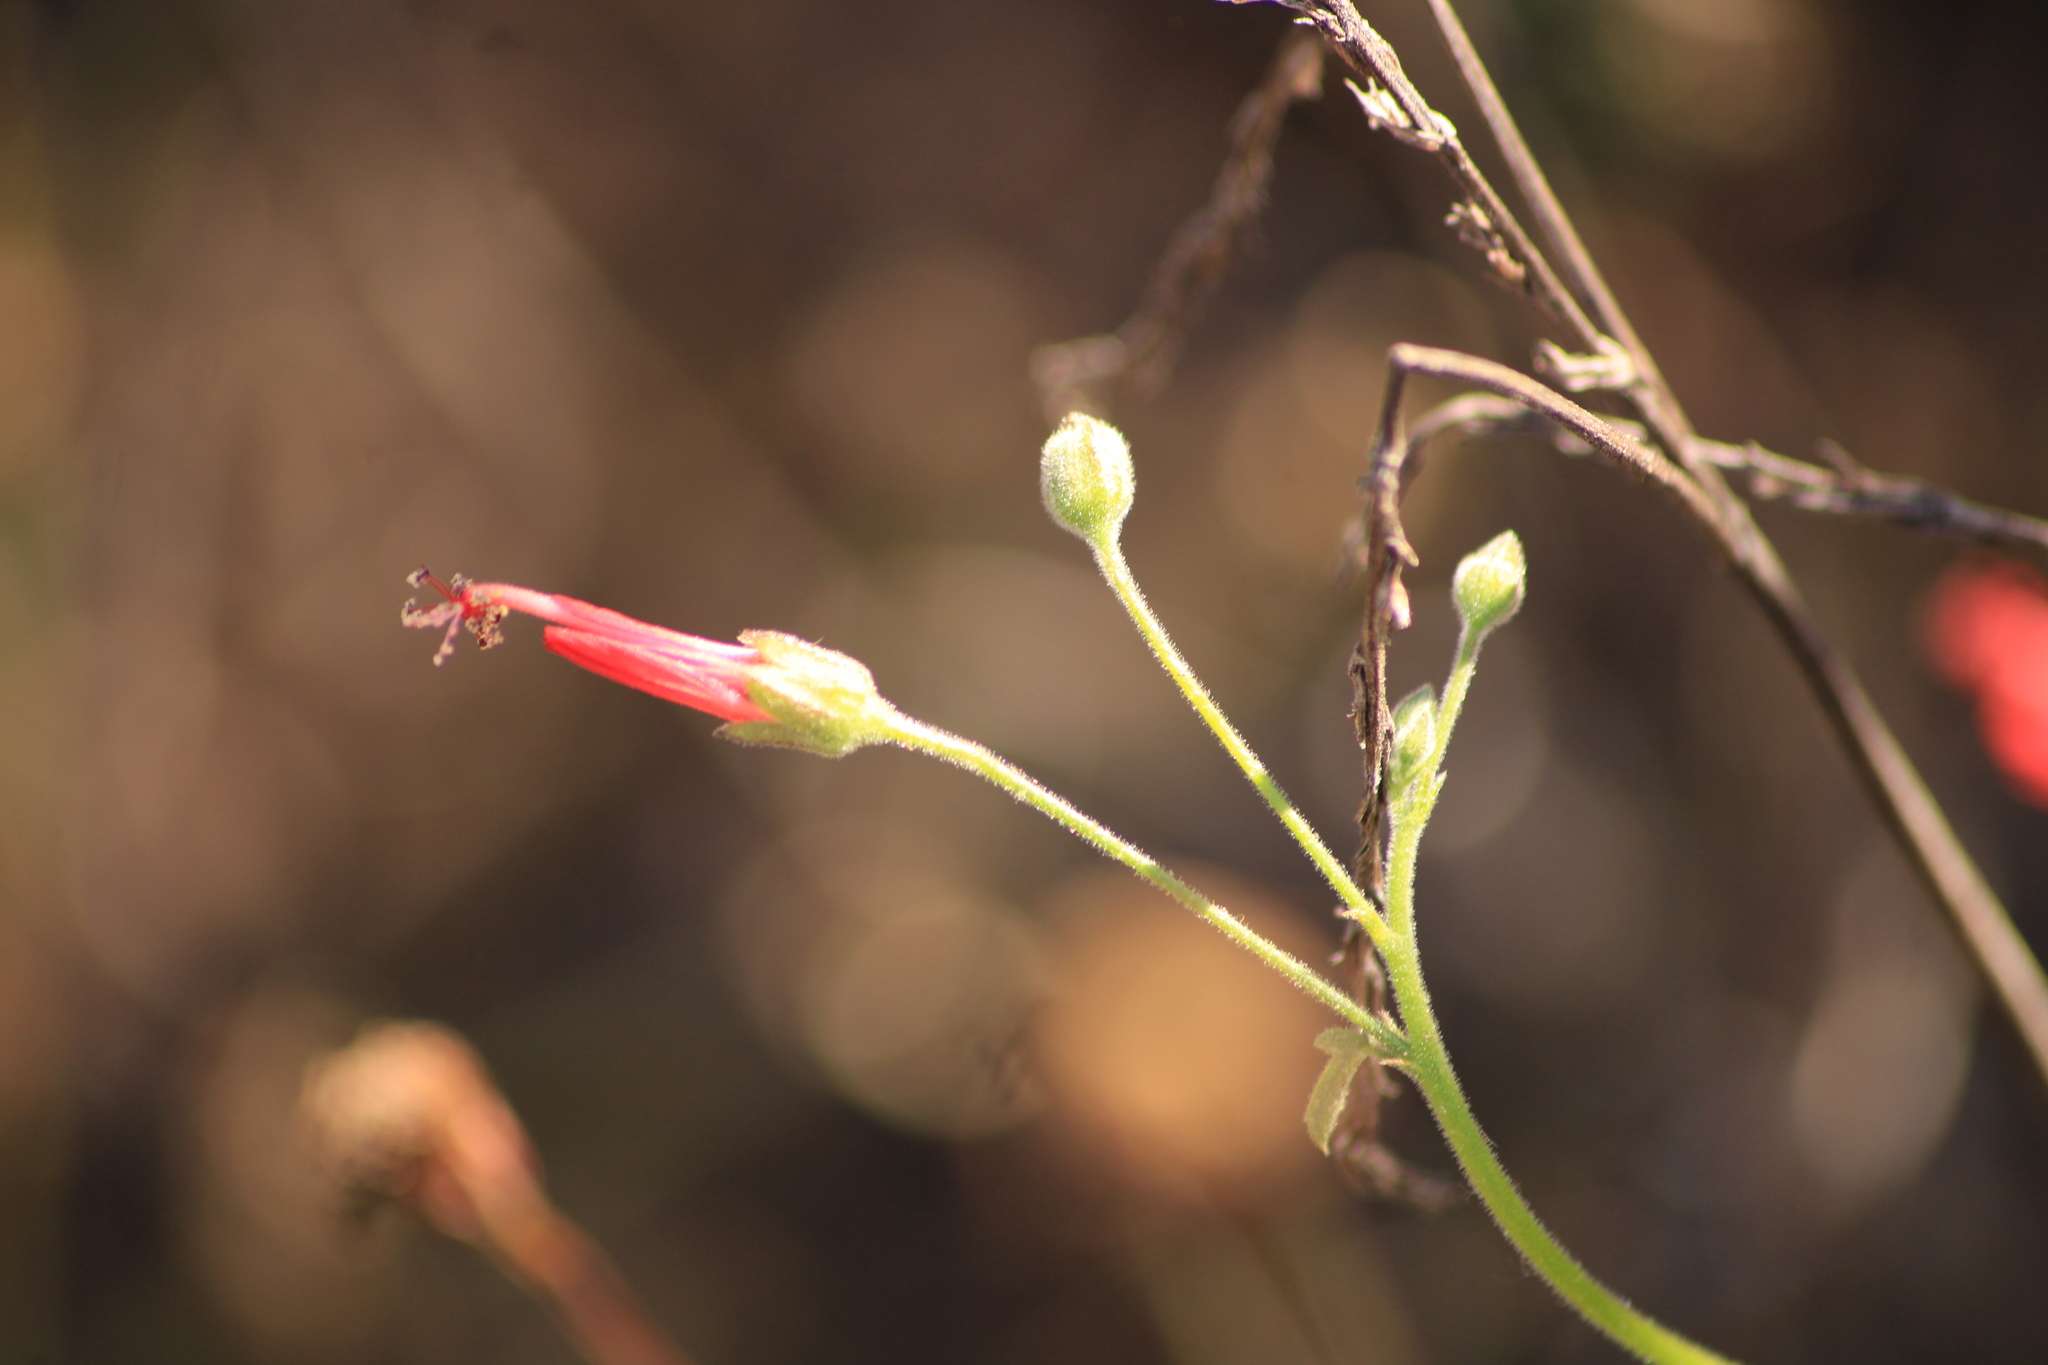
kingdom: Plantae
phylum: Tracheophyta
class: Magnoliopsida
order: Malvales
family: Malvaceae
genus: Periptera
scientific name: Periptera punicea
